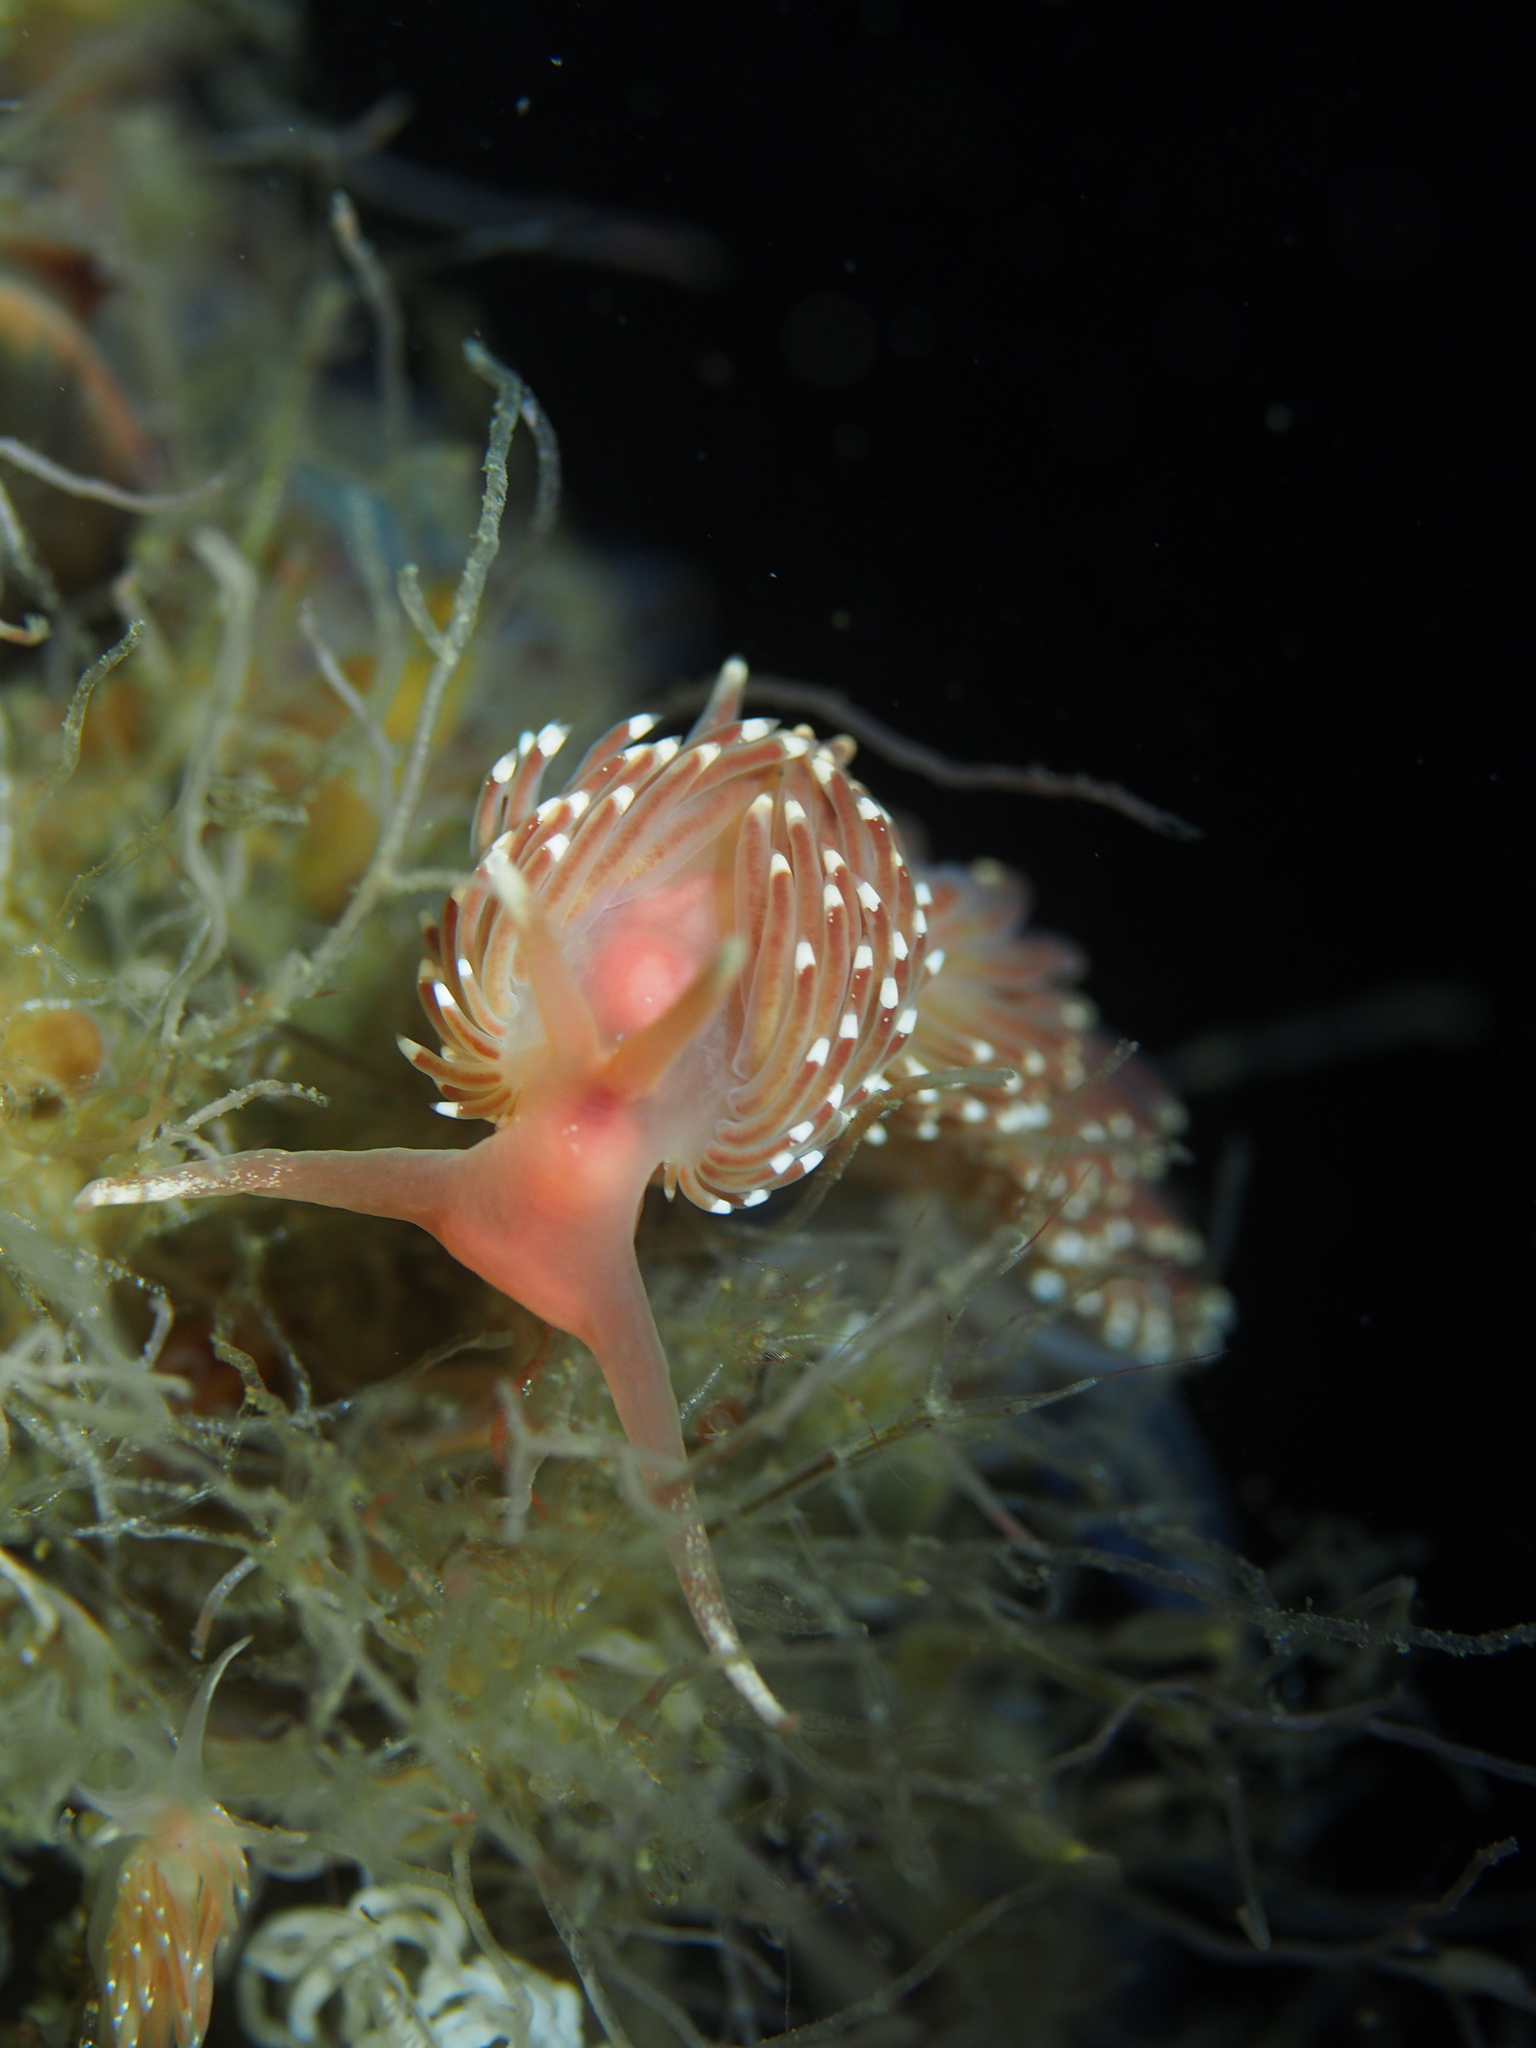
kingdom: Animalia
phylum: Mollusca
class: Gastropoda
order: Nudibranchia
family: Facelinidae
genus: Facelina
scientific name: Facelina bostoniensis
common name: Boston facelina
